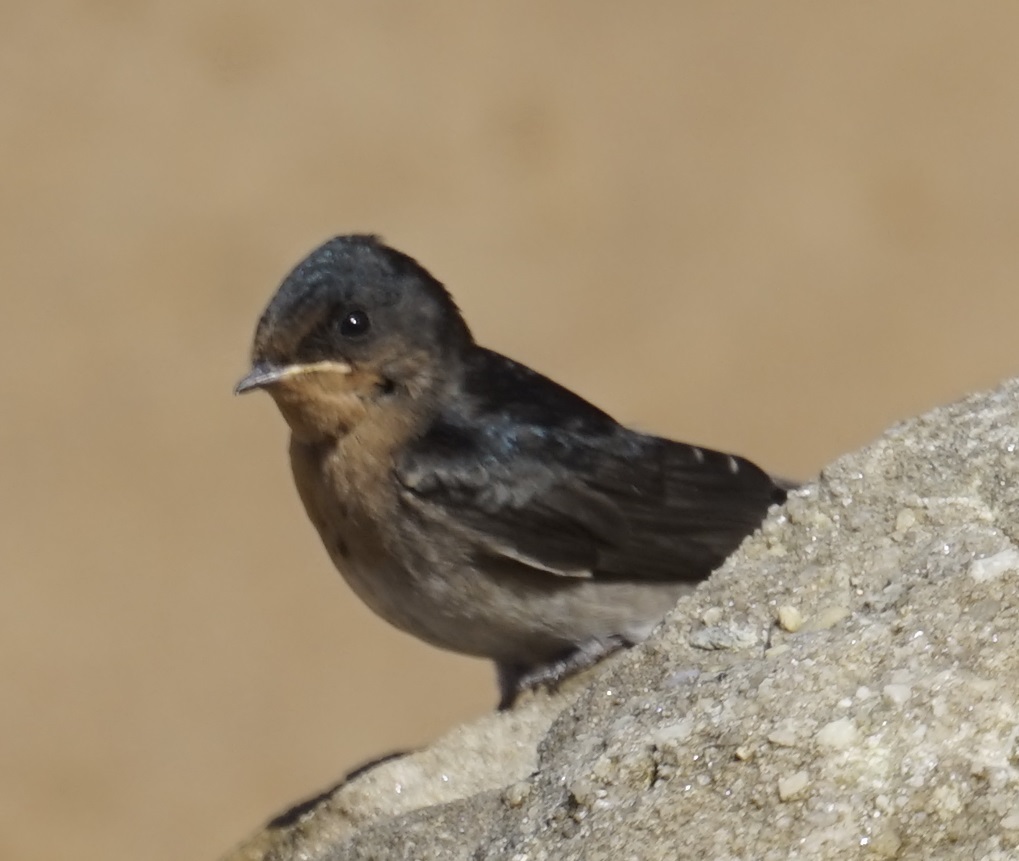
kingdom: Animalia
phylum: Chordata
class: Aves
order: Passeriformes
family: Hirundinidae
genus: Hirundo
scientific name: Hirundo neoxena
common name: Welcome swallow
